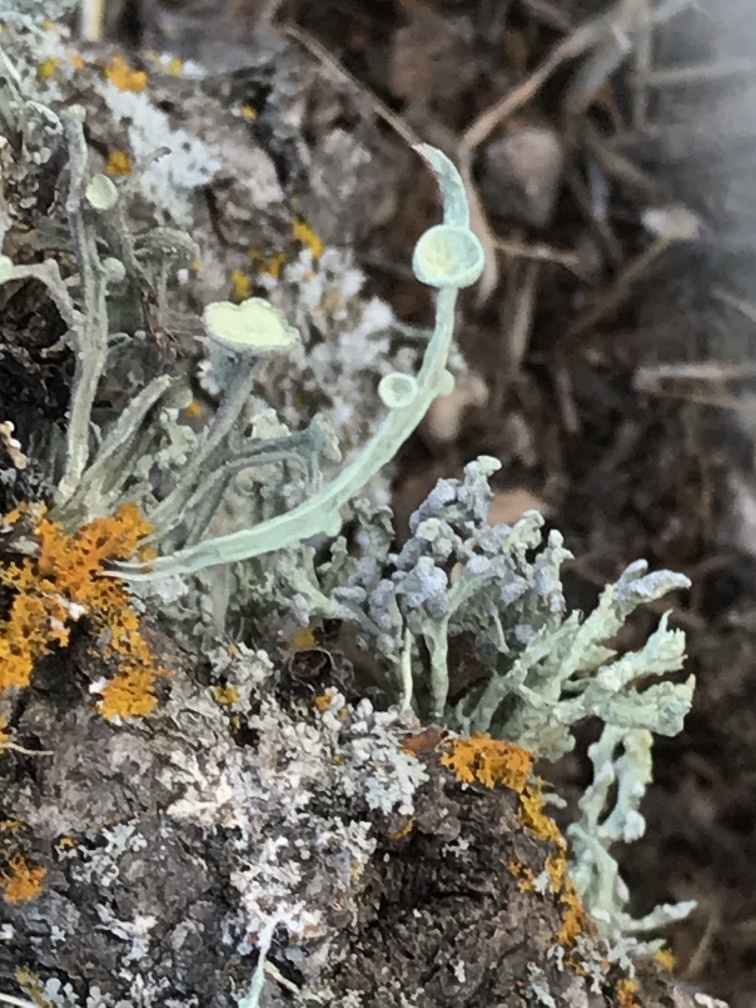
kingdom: Fungi
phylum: Ascomycota
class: Lecanoromycetes
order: Lecanorales
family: Ramalinaceae
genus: Niebla
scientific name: Niebla cephalota
